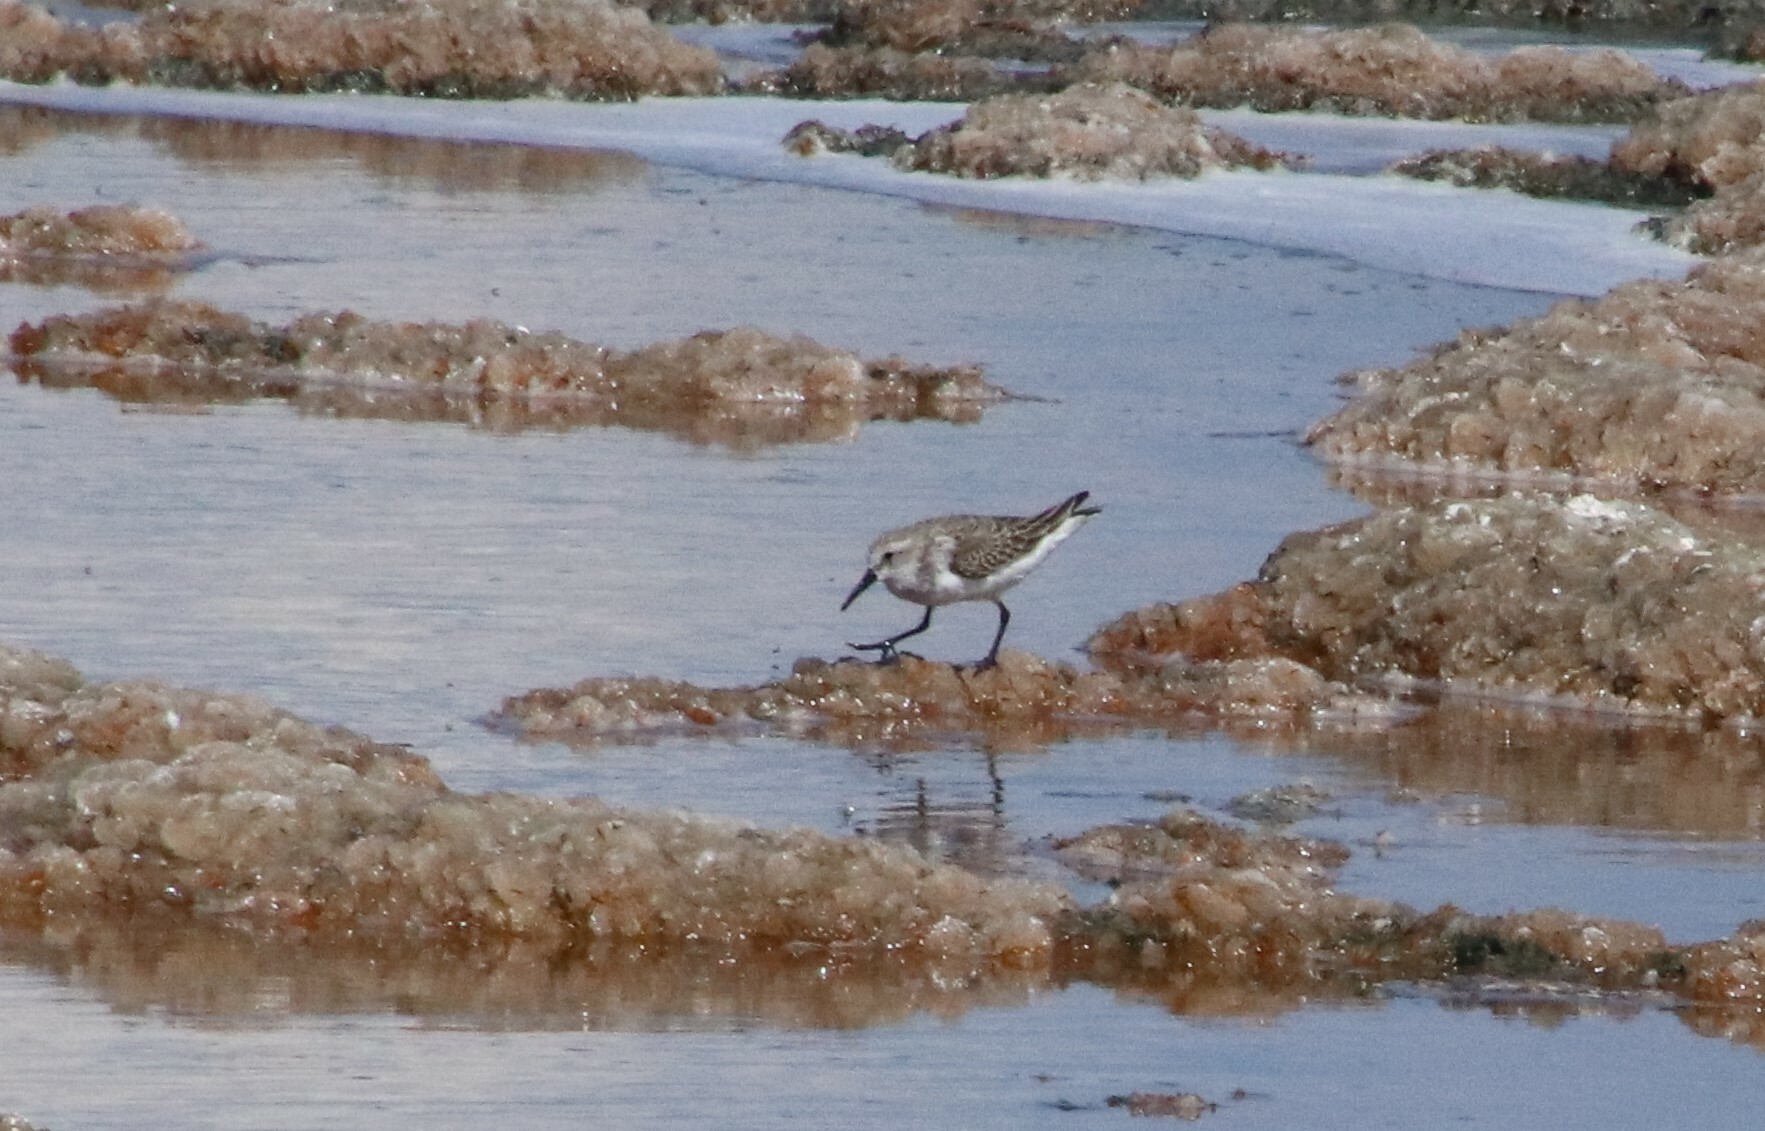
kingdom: Animalia
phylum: Chordata
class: Aves
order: Charadriiformes
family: Scolopacidae
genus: Calidris
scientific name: Calidris mauri
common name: Western sandpiper
